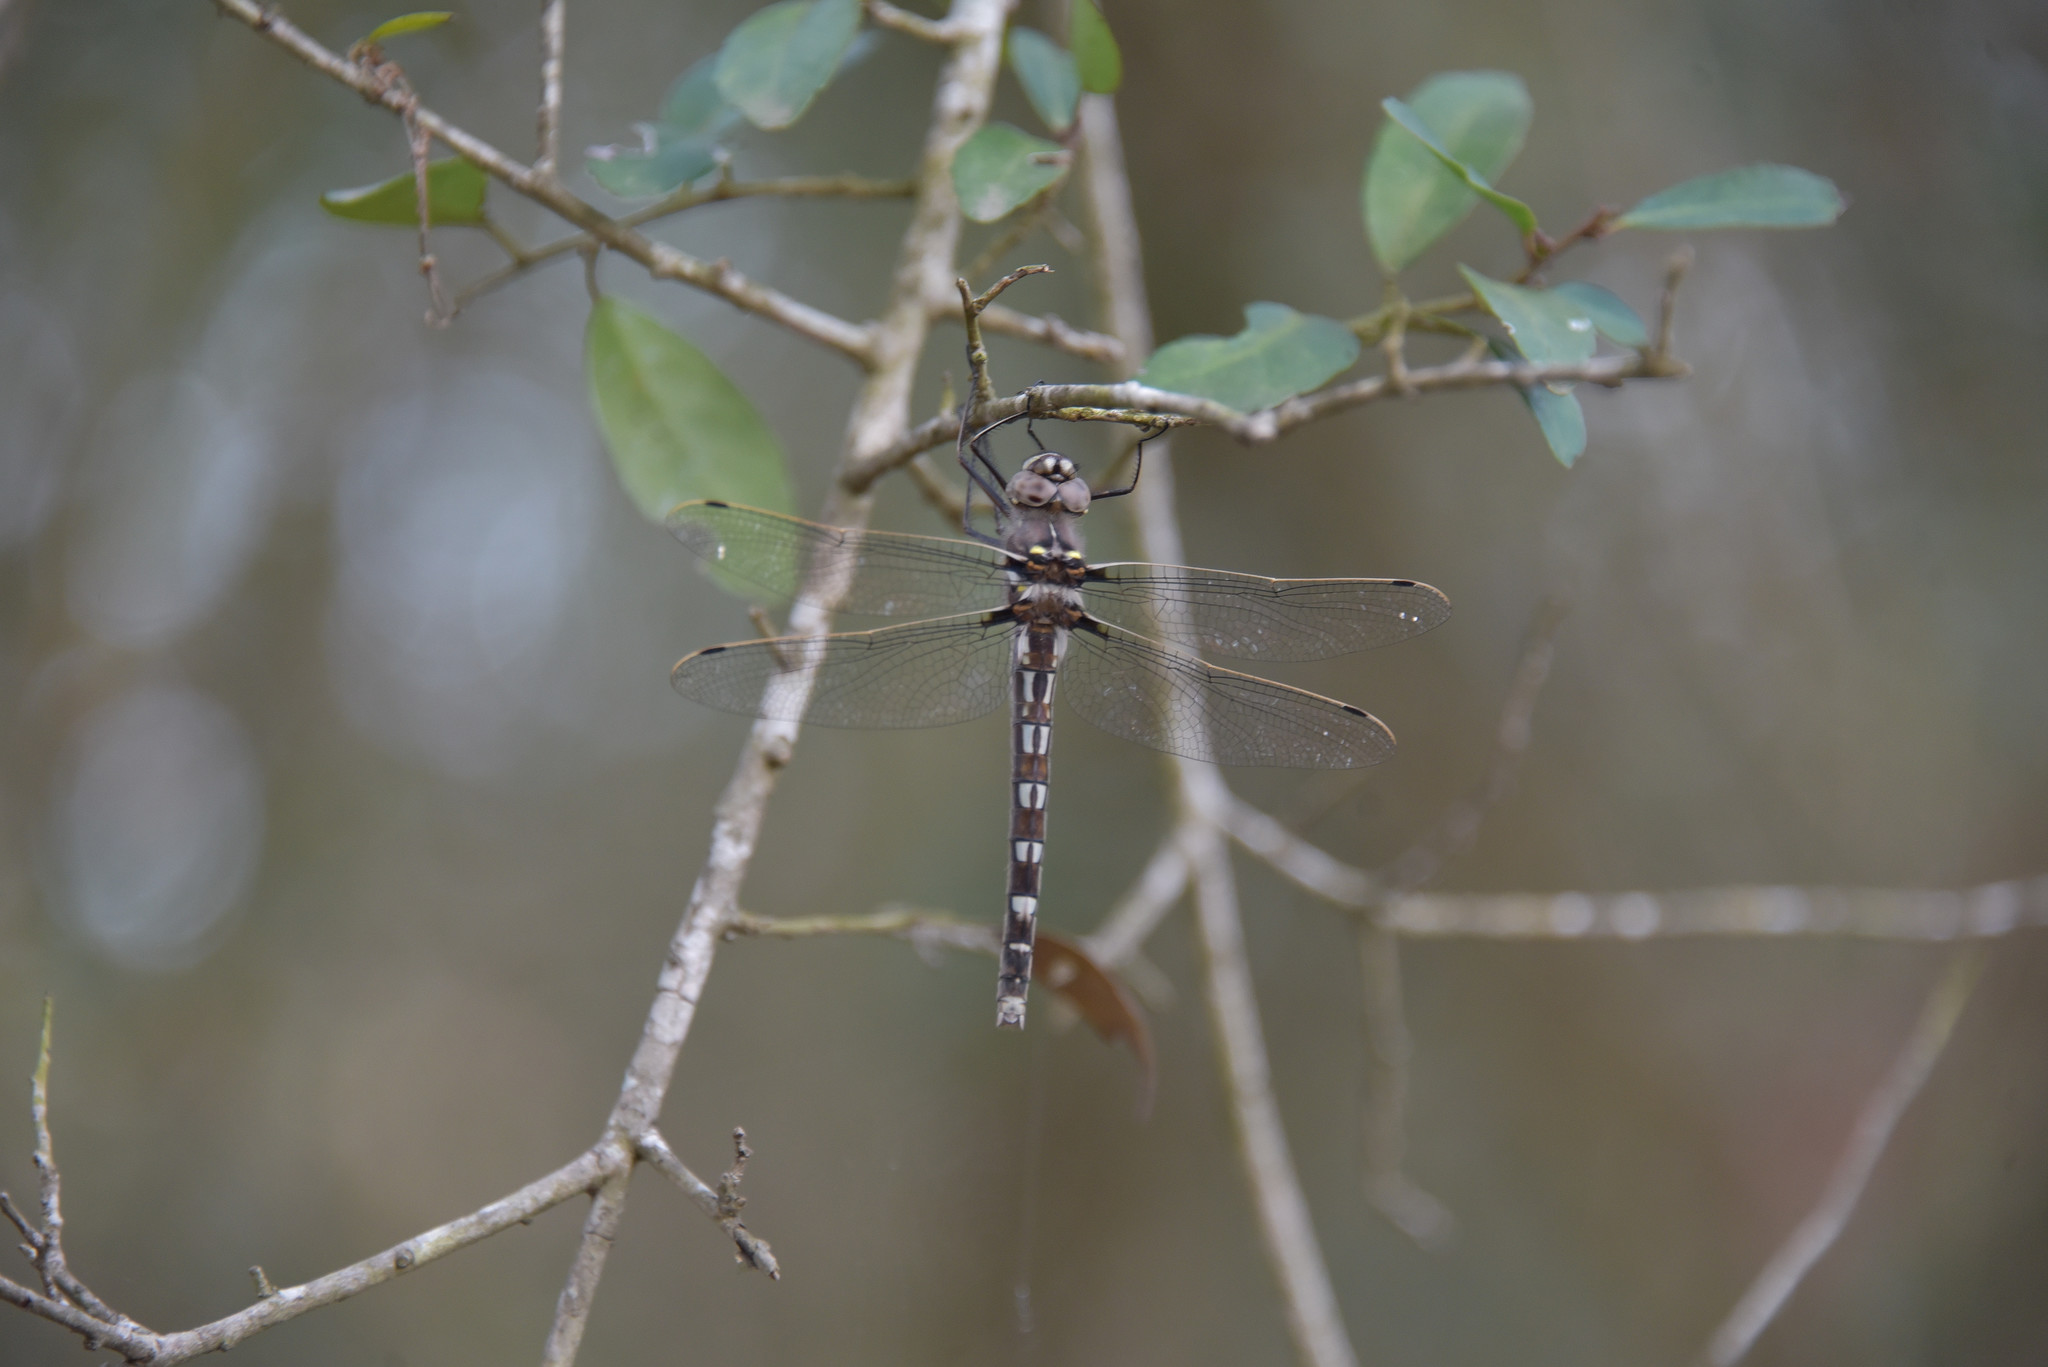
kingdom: Animalia
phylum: Arthropoda
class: Insecta
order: Odonata
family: Macromiidae
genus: Didymops
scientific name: Didymops transversa
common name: Stream cruiser
